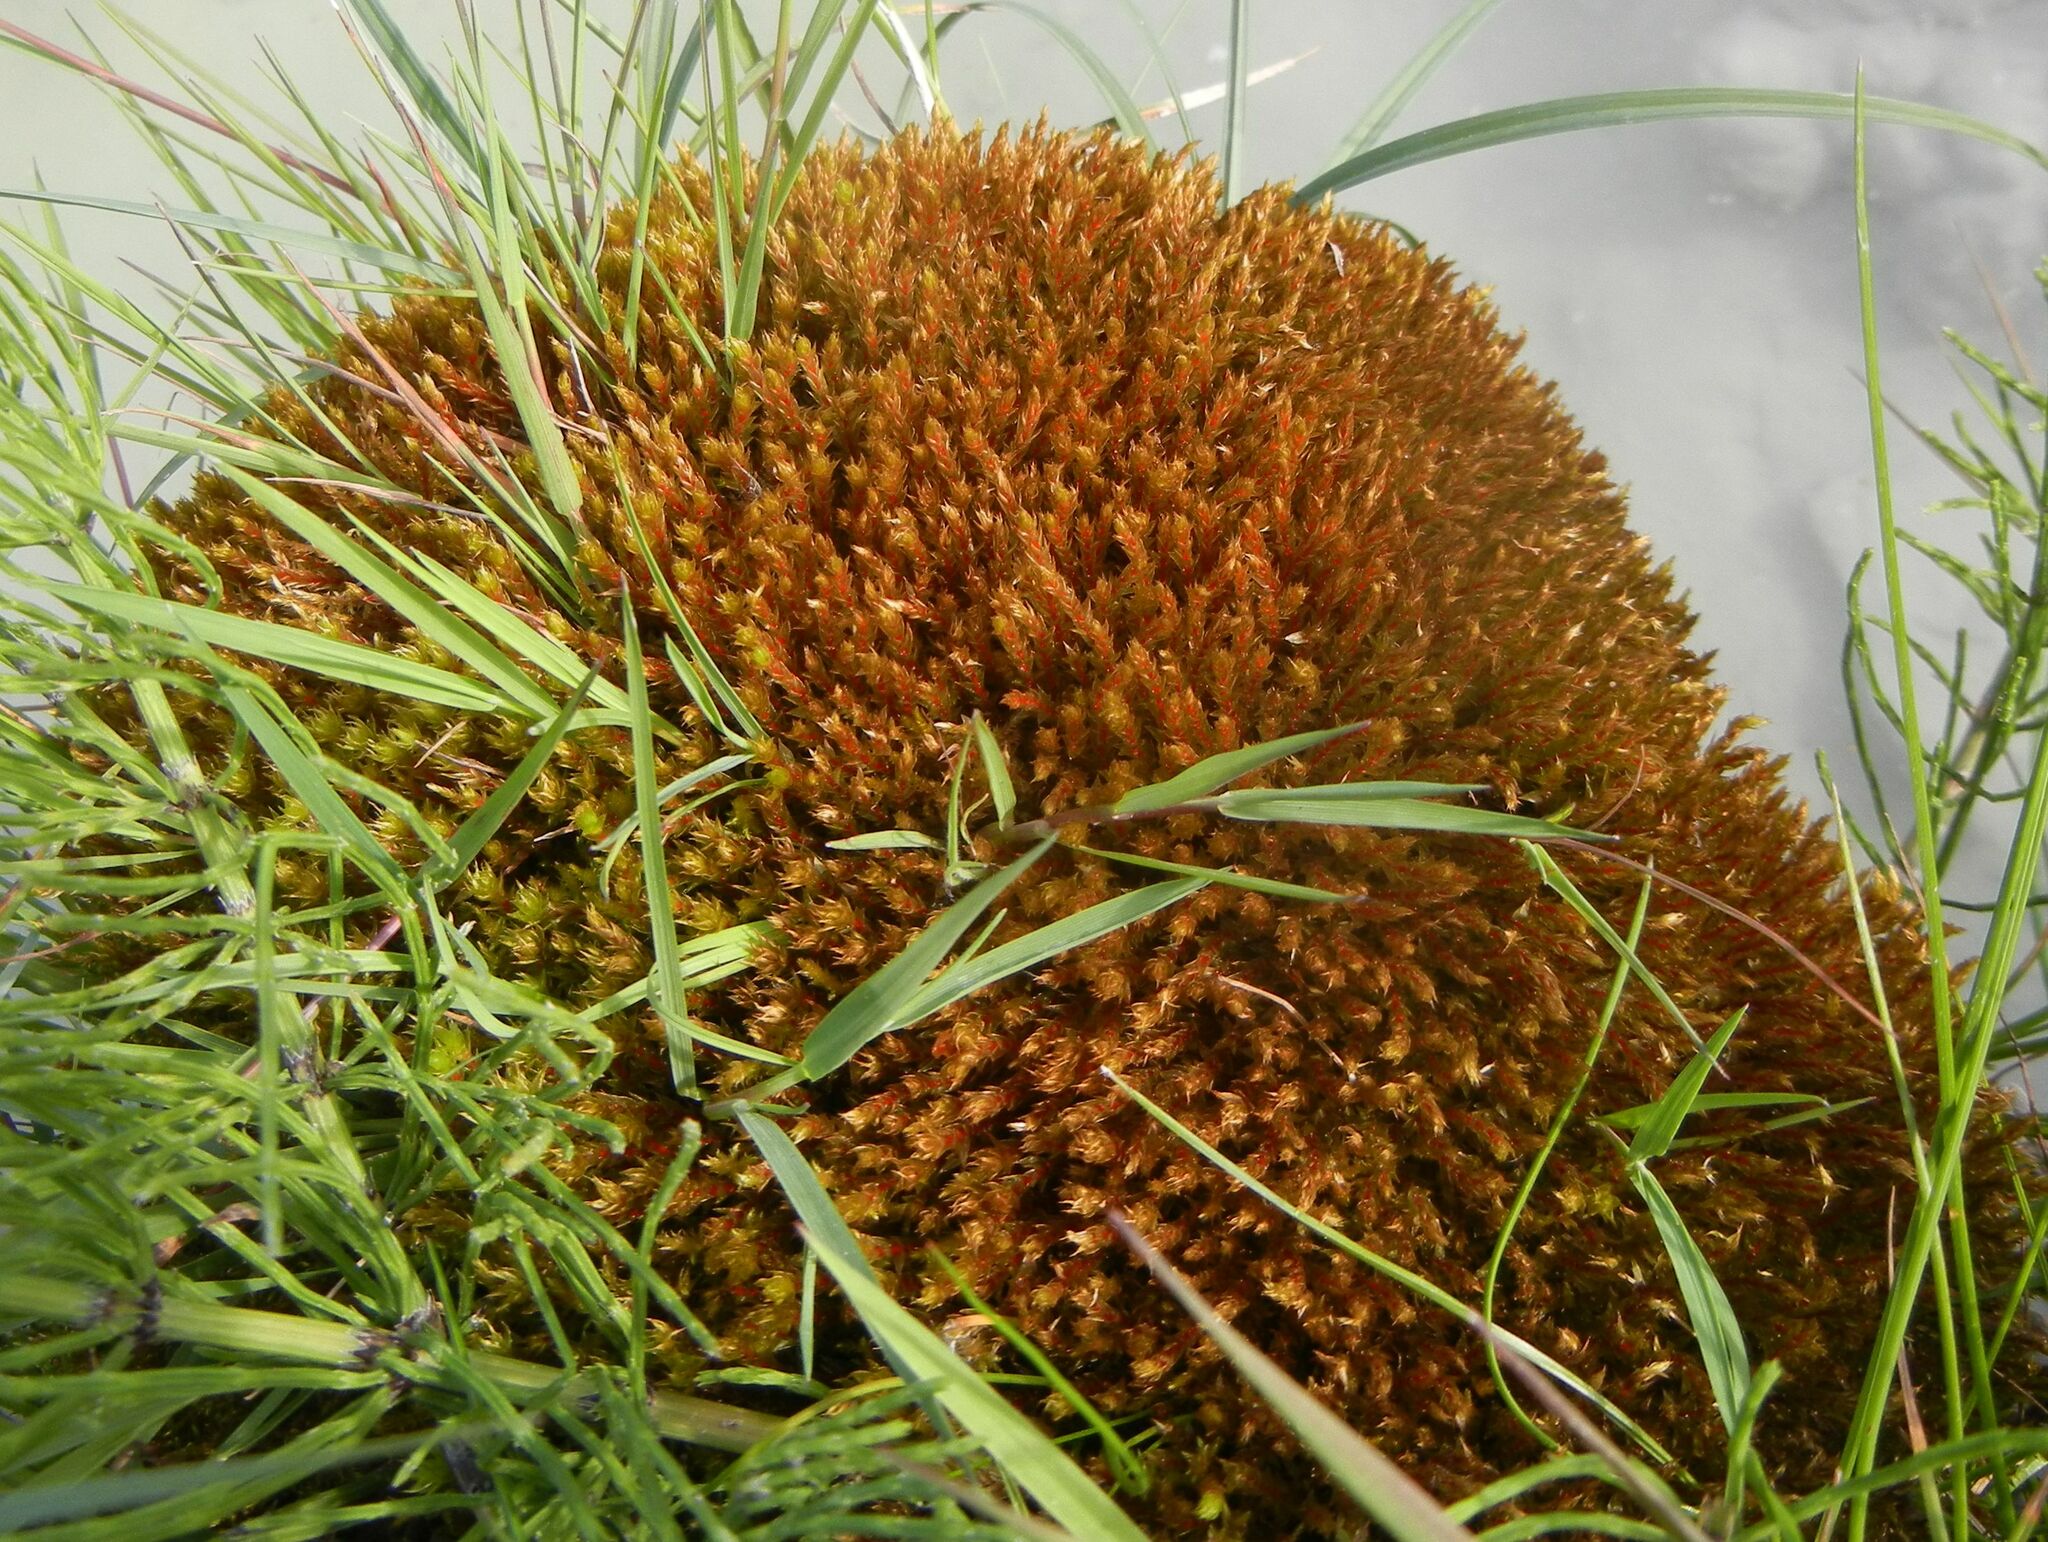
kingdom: Plantae
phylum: Bryophyta
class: Bryopsida
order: Bryales
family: Bryaceae
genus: Ptychostomum
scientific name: Ptychostomum pseudotriquetrum
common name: Long-leaved thread moss
